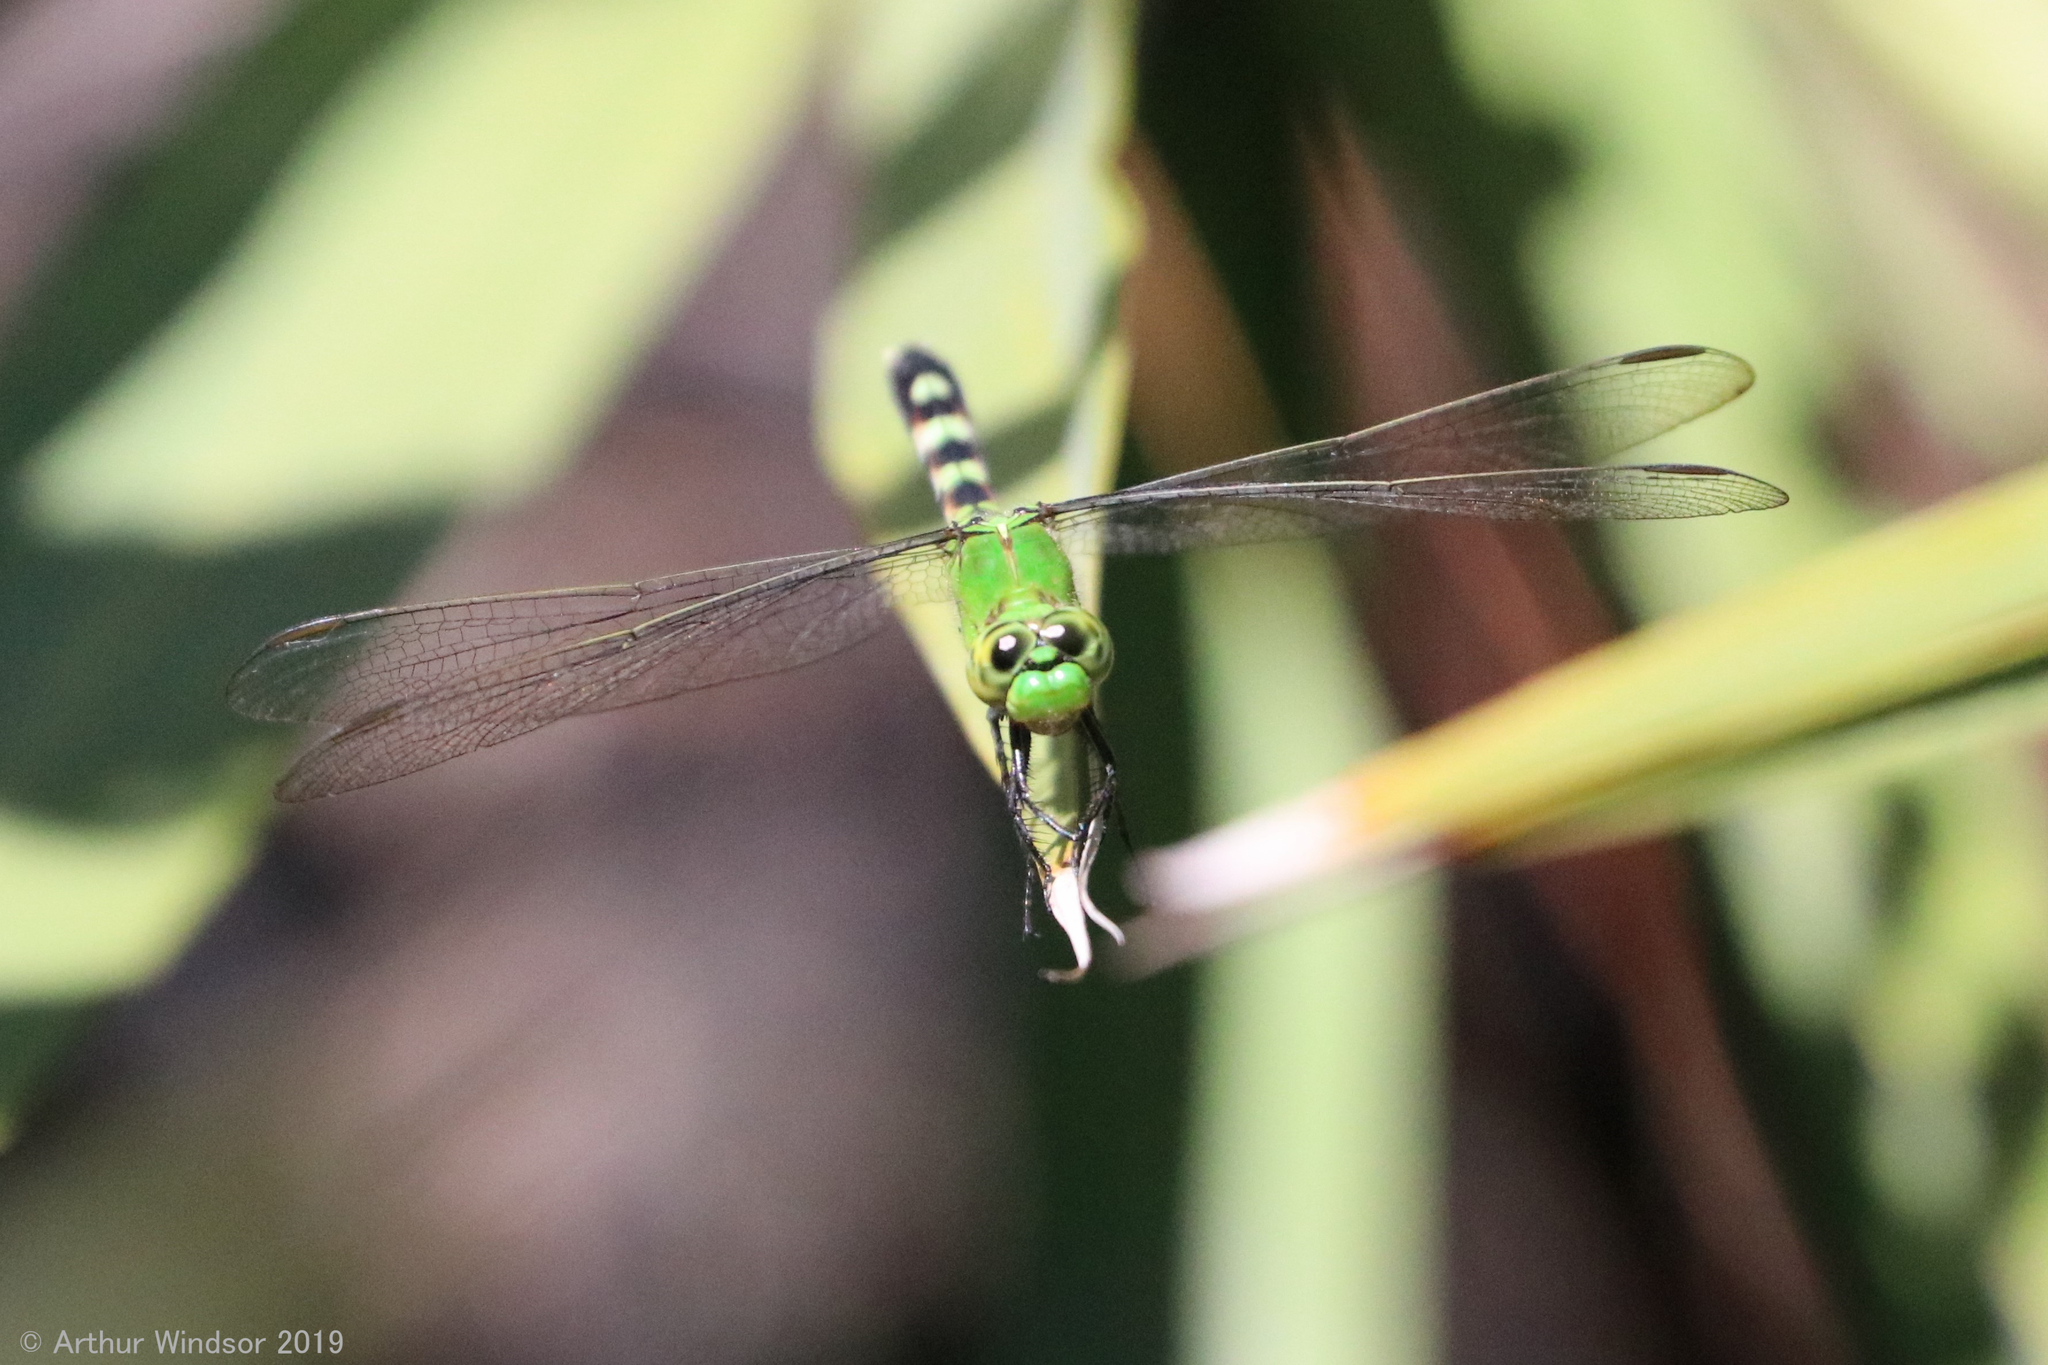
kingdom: Animalia
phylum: Arthropoda
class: Insecta
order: Odonata
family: Libellulidae
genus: Erythemis
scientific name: Erythemis simplicicollis
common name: Eastern pondhawk
